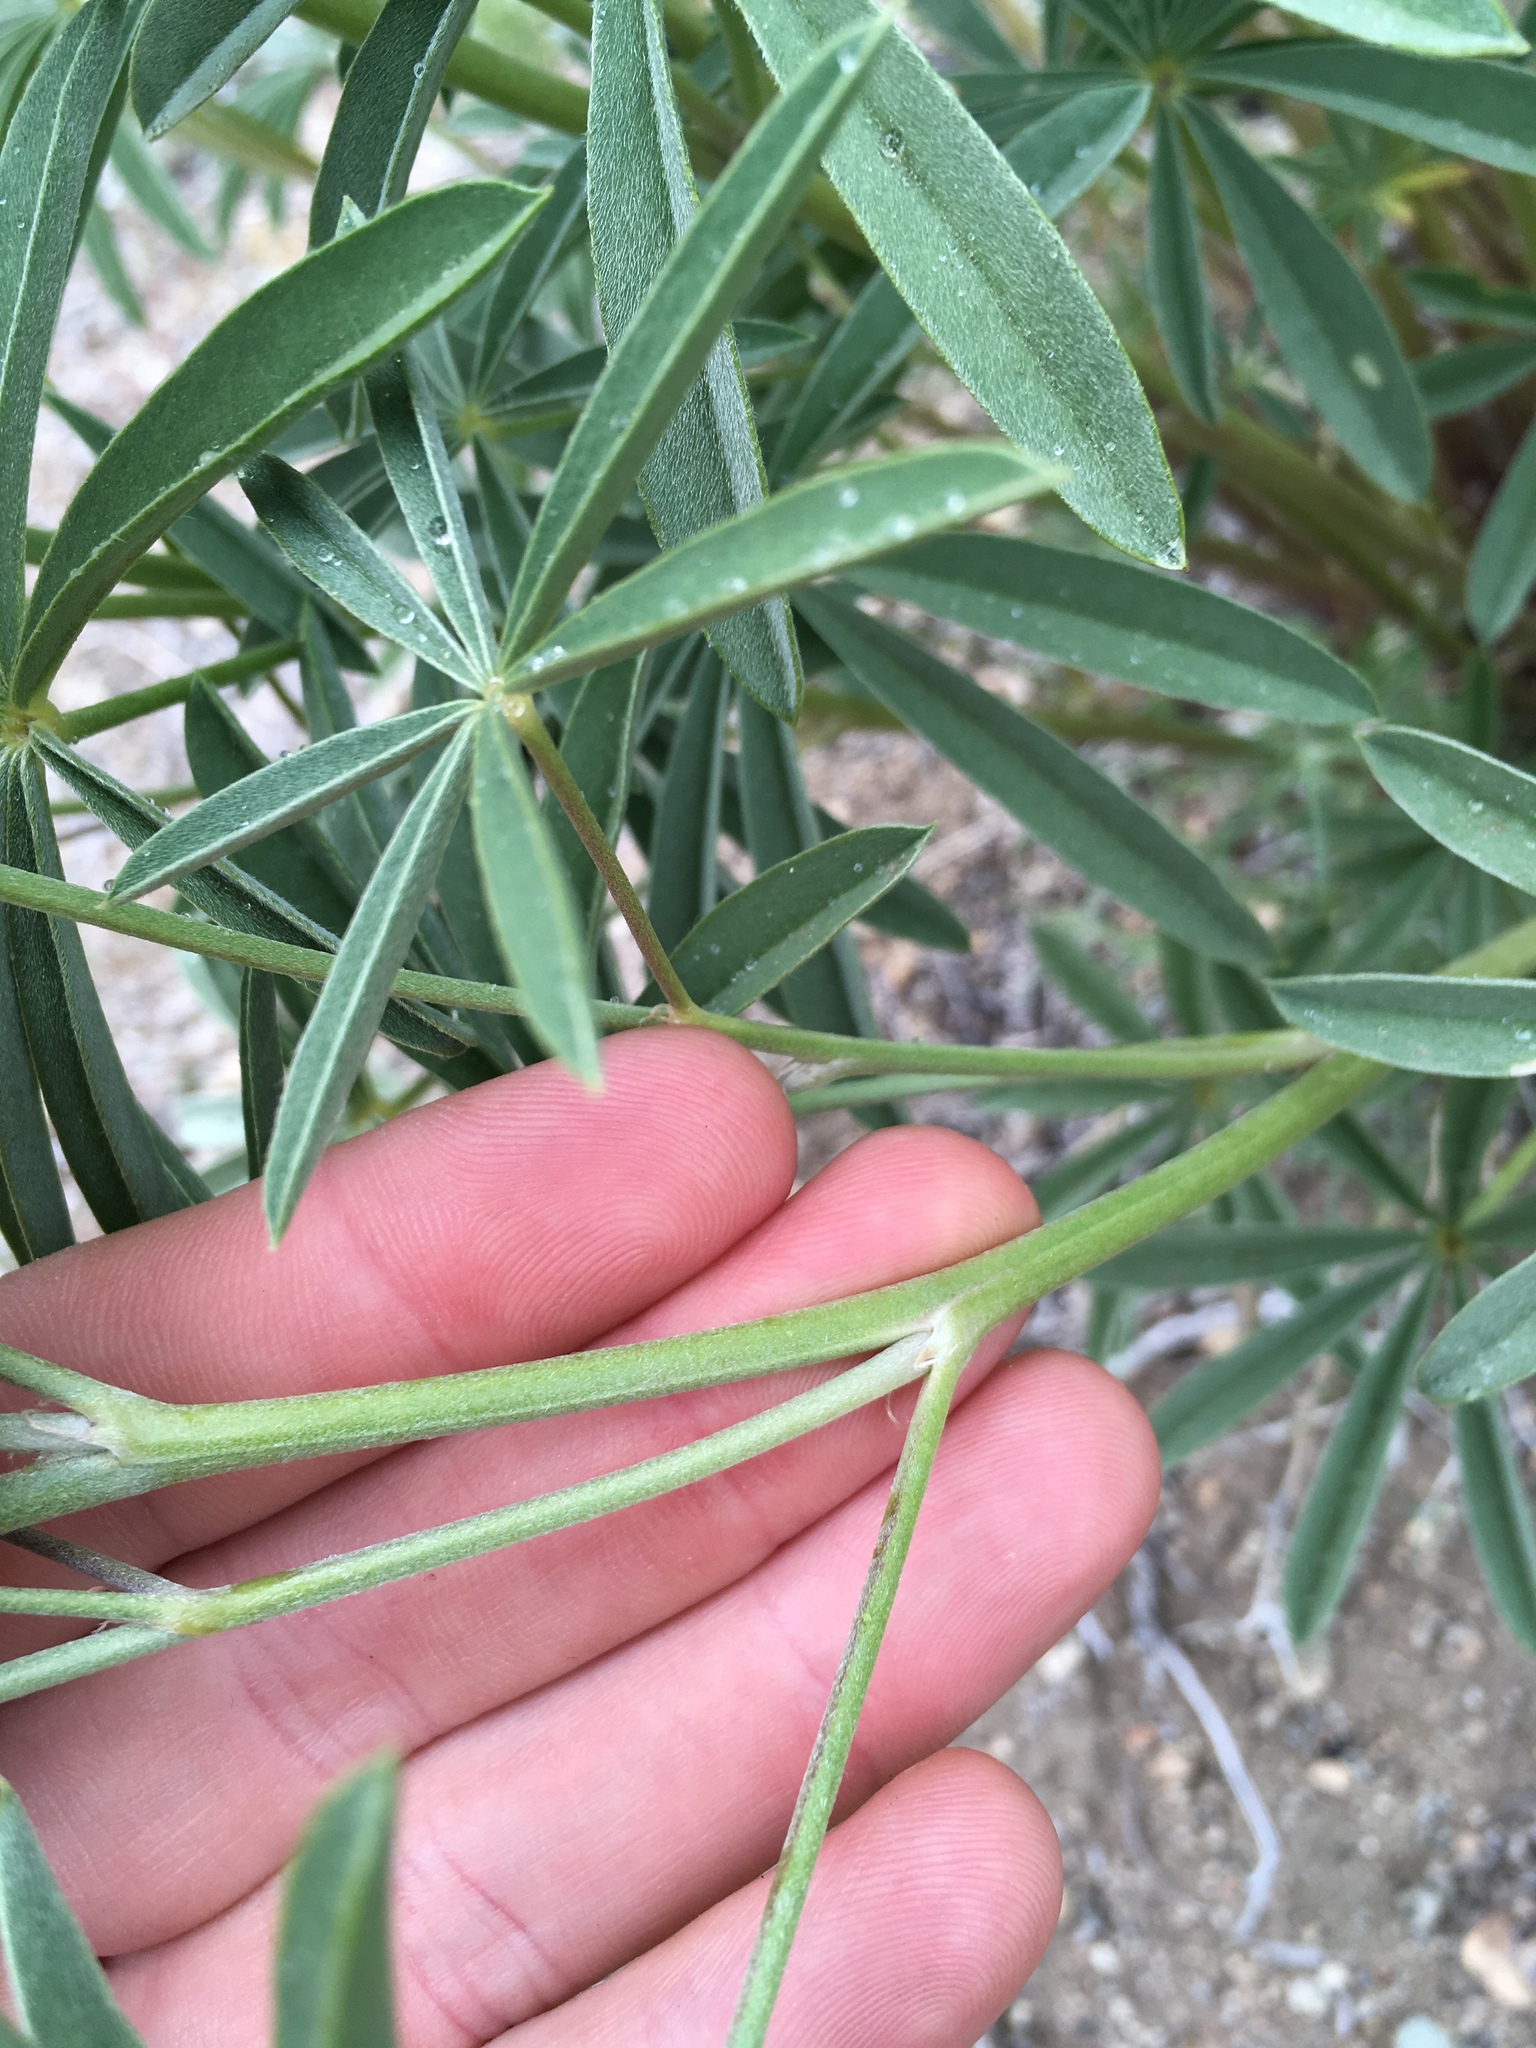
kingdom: Plantae
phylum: Tracheophyta
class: Magnoliopsida
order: Fabales
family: Fabaceae
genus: Lupinus
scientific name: Lupinus arbustus
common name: Montana lupine
